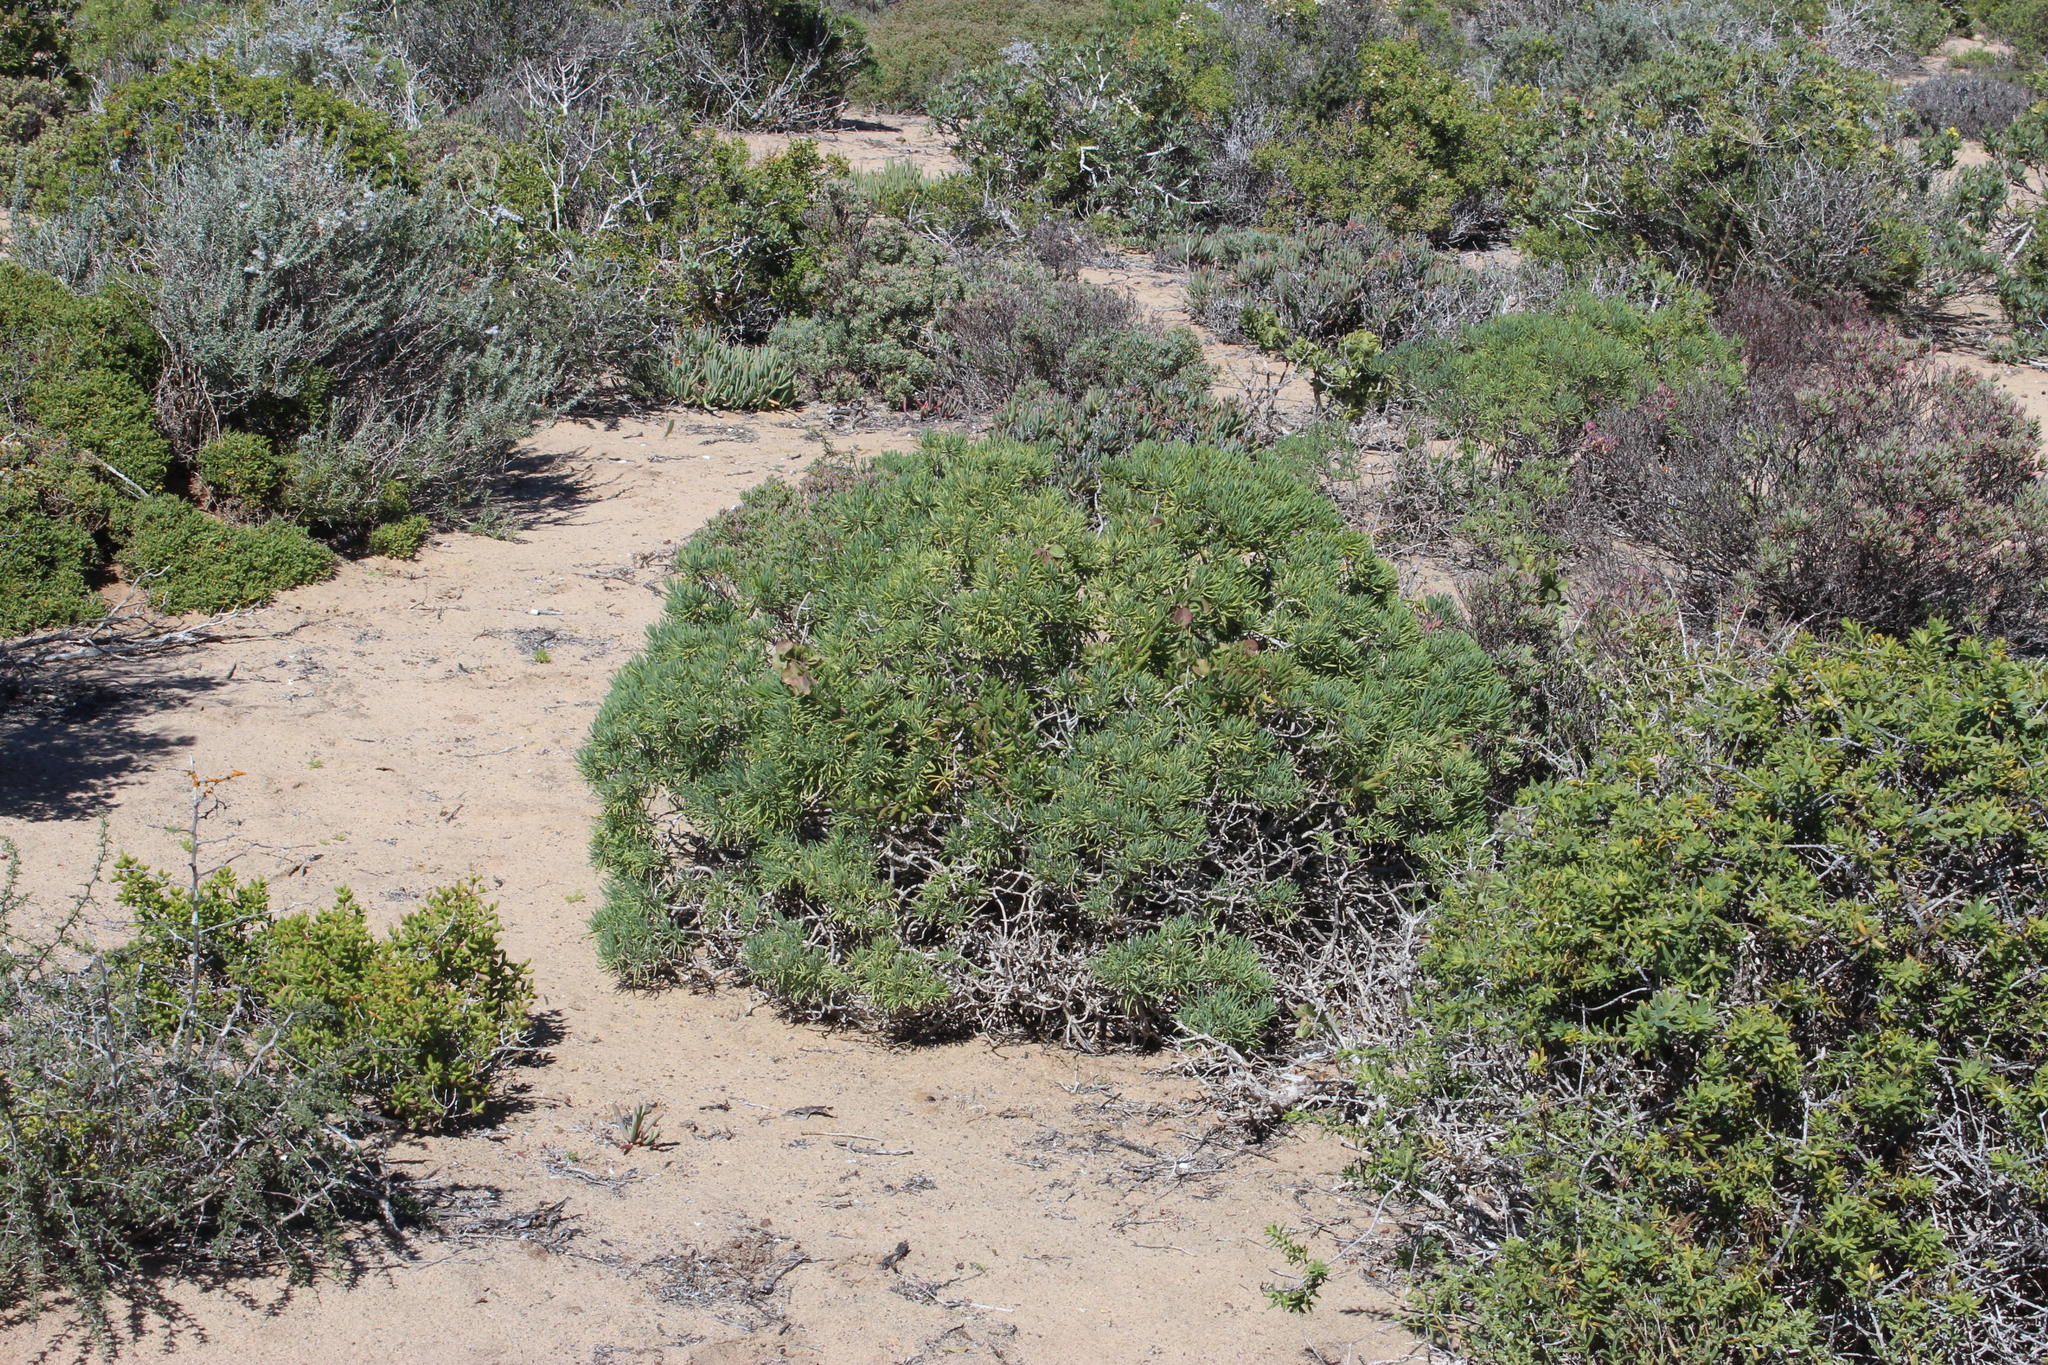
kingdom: Plantae
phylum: Tracheophyta
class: Magnoliopsida
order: Asterales
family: Asteraceae
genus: Crassothonna
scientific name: Crassothonna cylindrica
